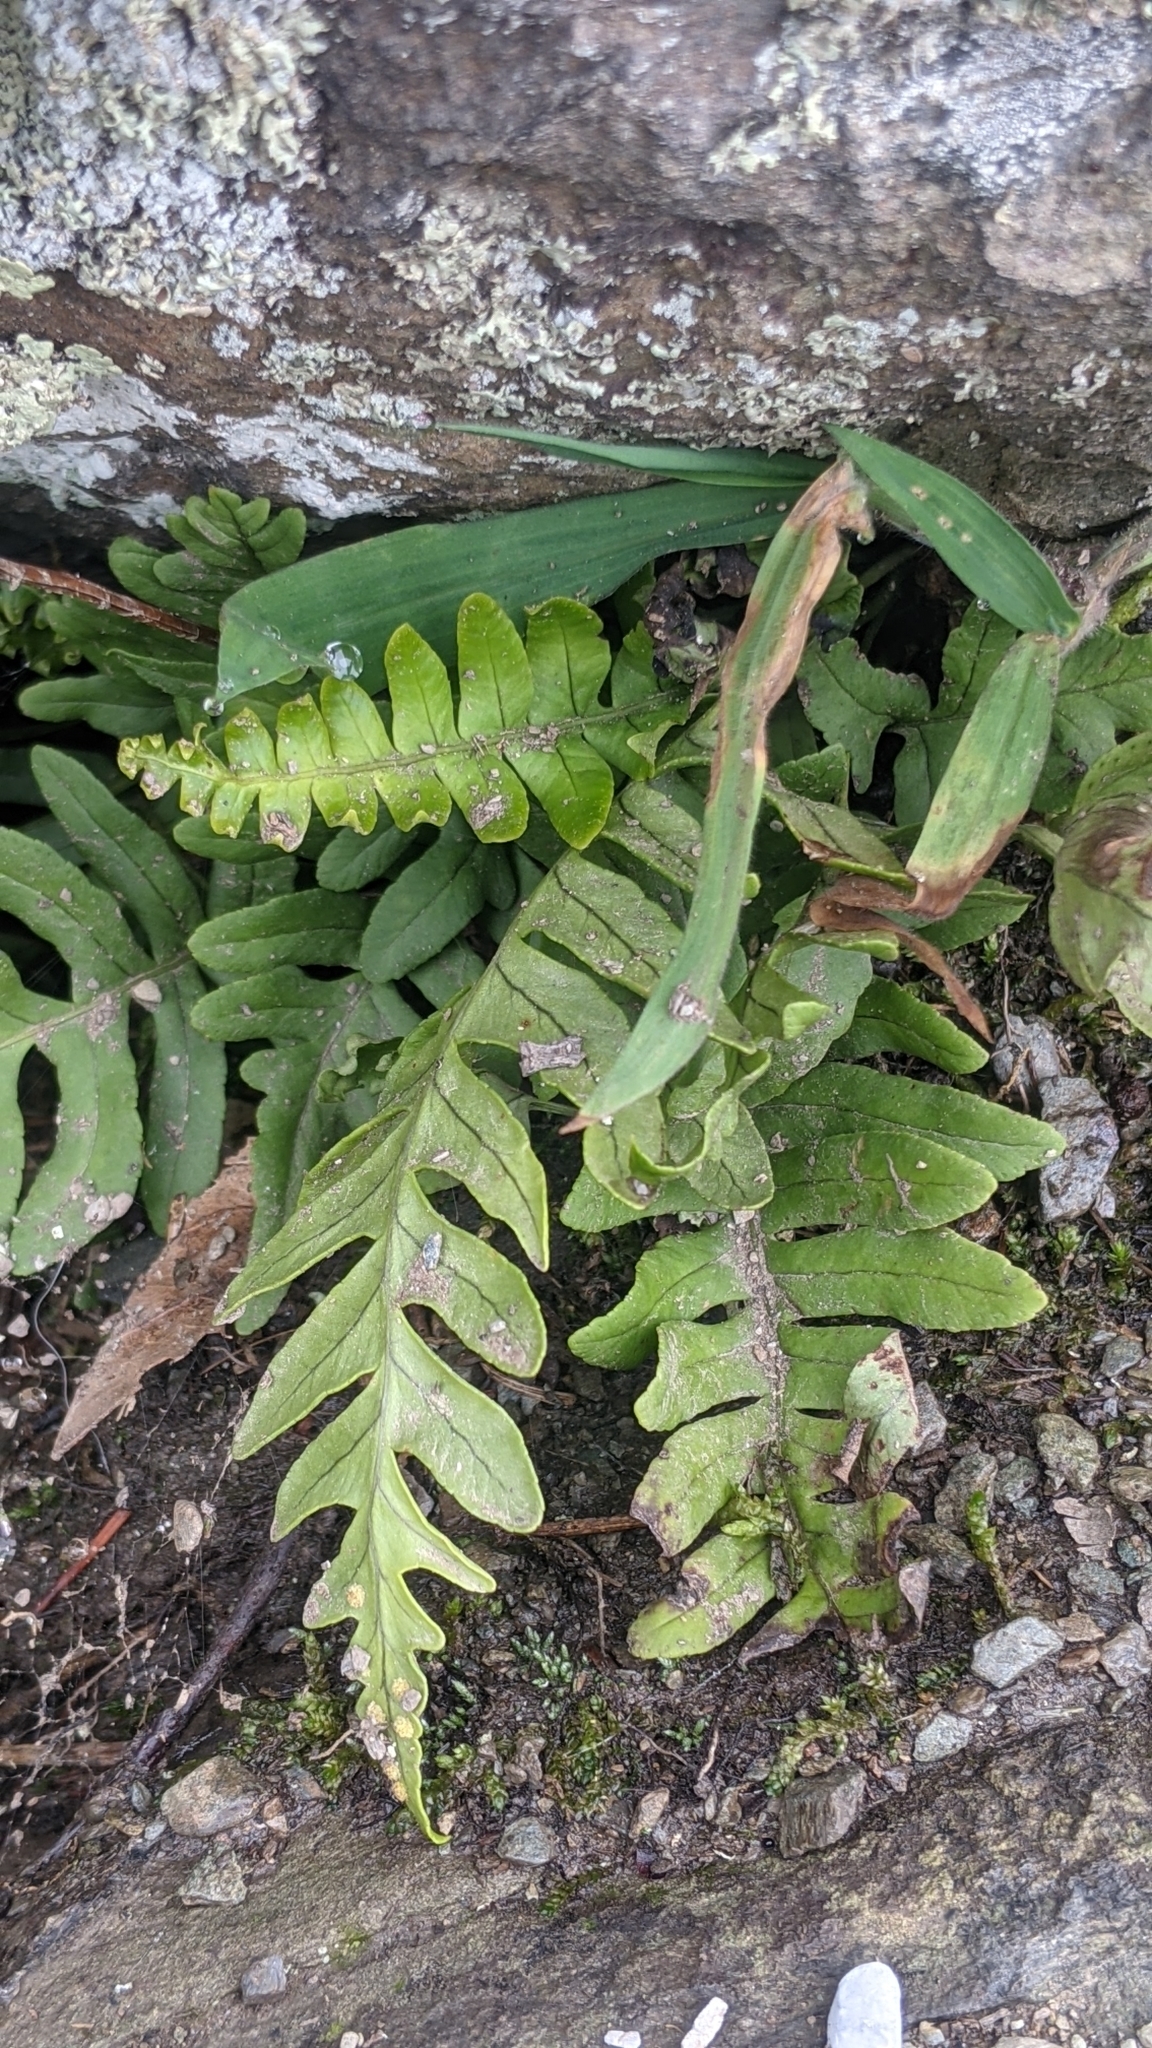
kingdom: Plantae
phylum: Tracheophyta
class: Polypodiopsida
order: Polypodiales
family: Polypodiaceae
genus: Polypodium
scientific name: Polypodium virginianum
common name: American wall fern
